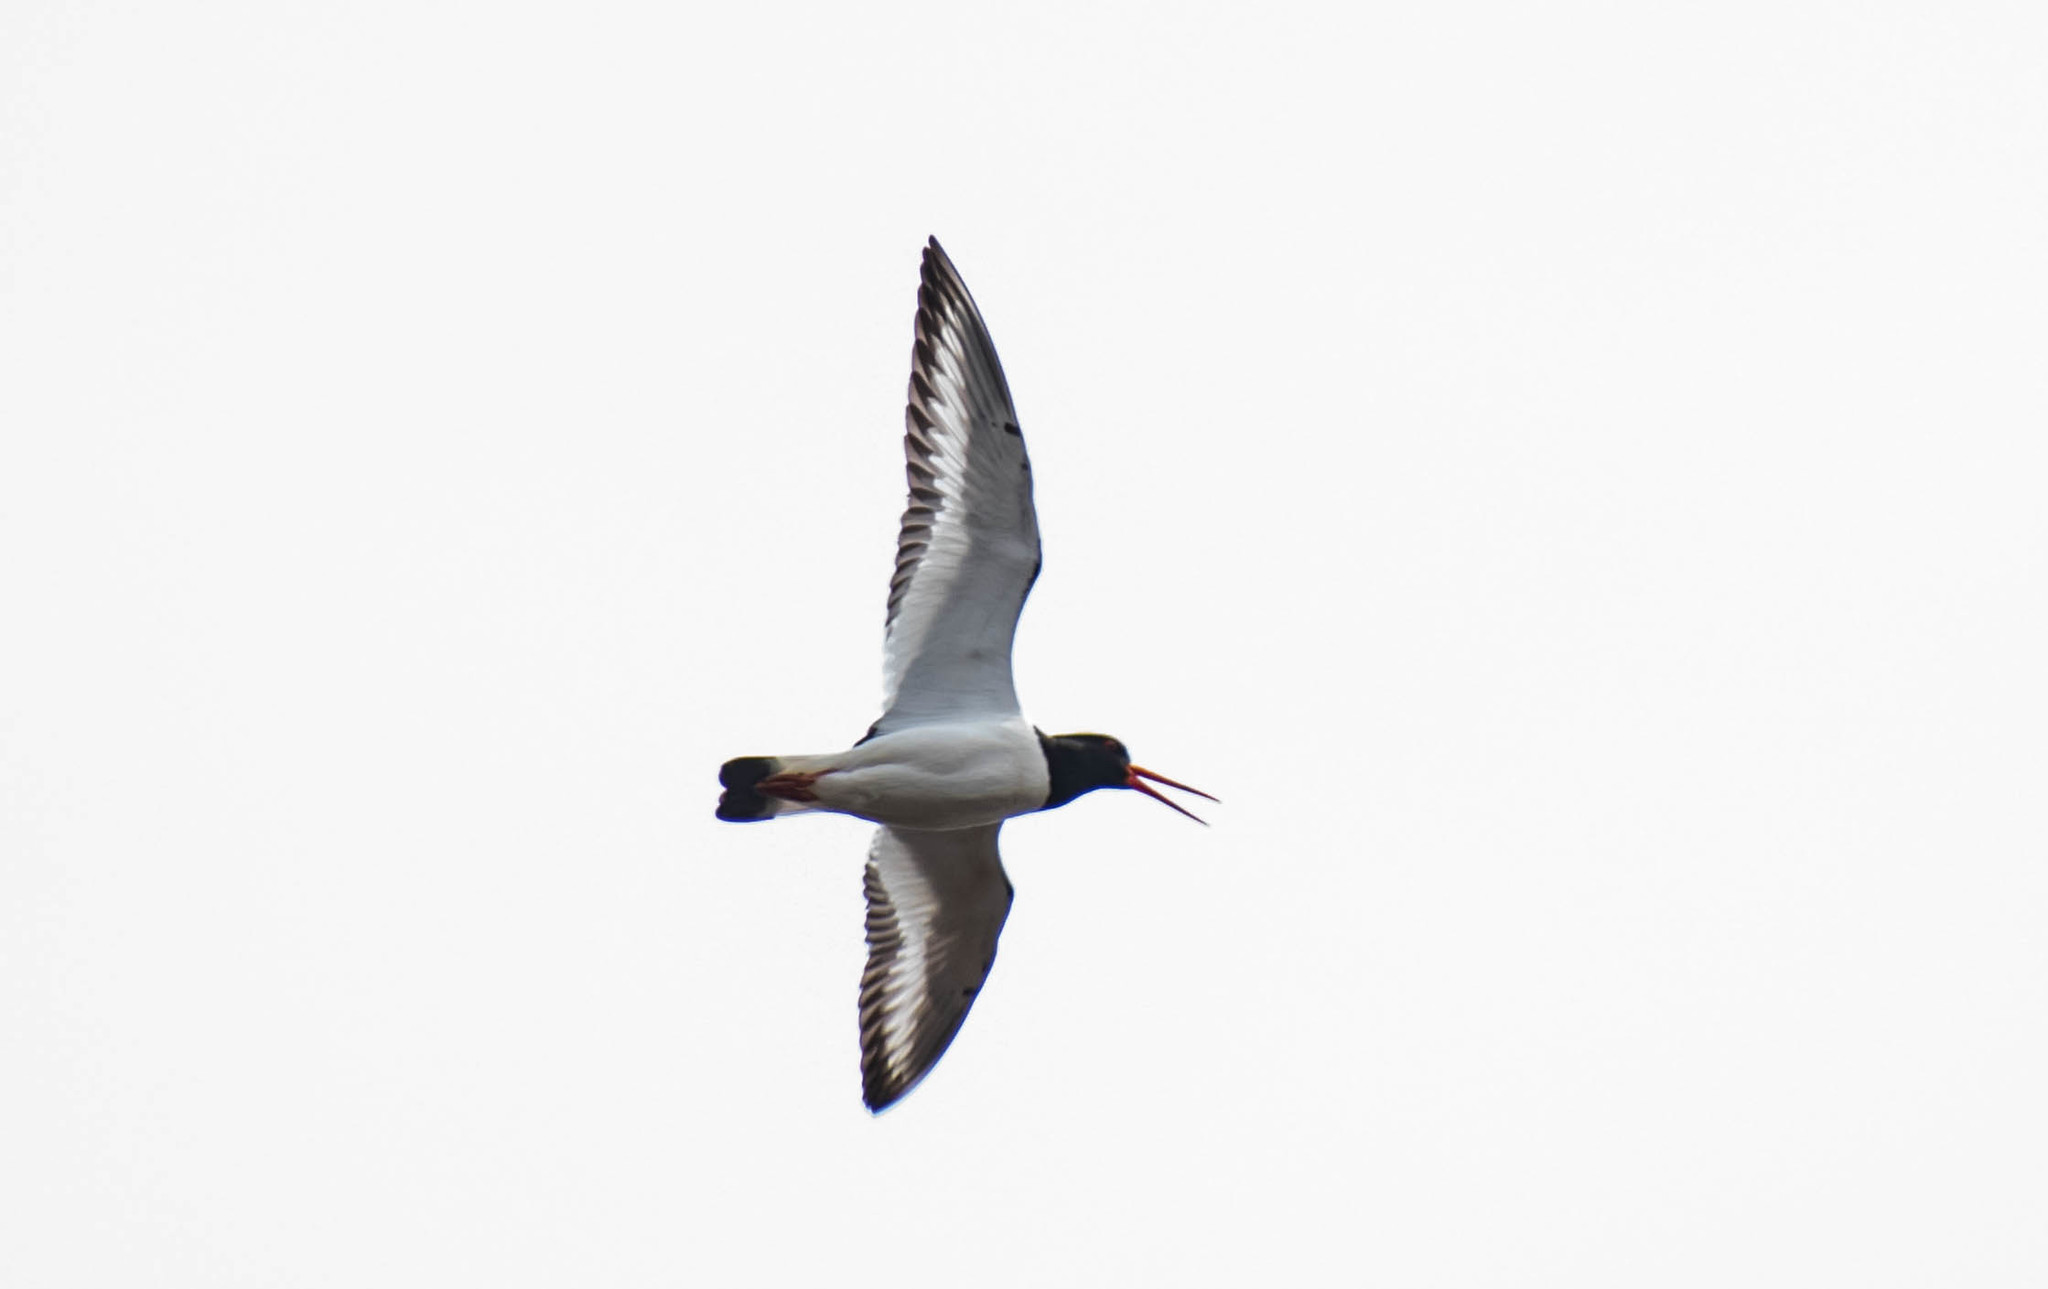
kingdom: Animalia
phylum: Chordata
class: Aves
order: Charadriiformes
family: Haematopodidae
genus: Haematopus
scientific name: Haematopus ostralegus
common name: Eurasian oystercatcher
